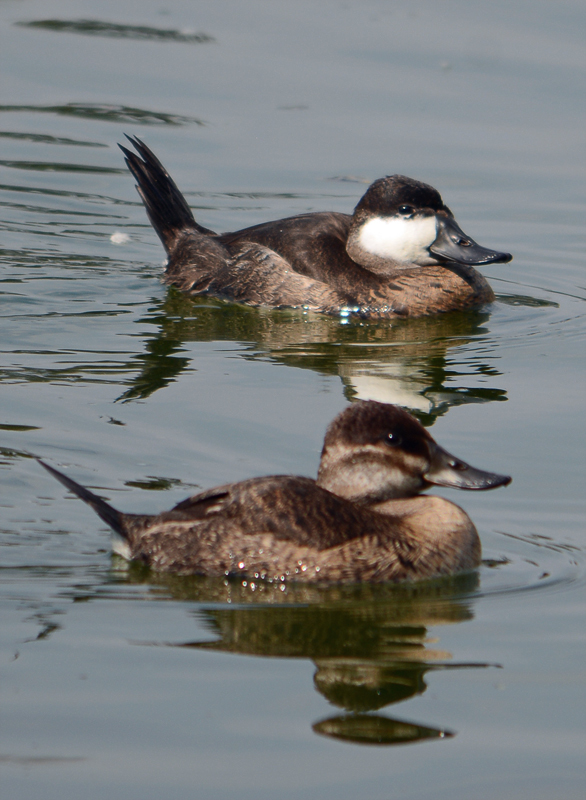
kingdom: Animalia
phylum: Chordata
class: Aves
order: Anseriformes
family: Anatidae
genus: Oxyura
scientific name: Oxyura jamaicensis
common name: Ruddy duck
